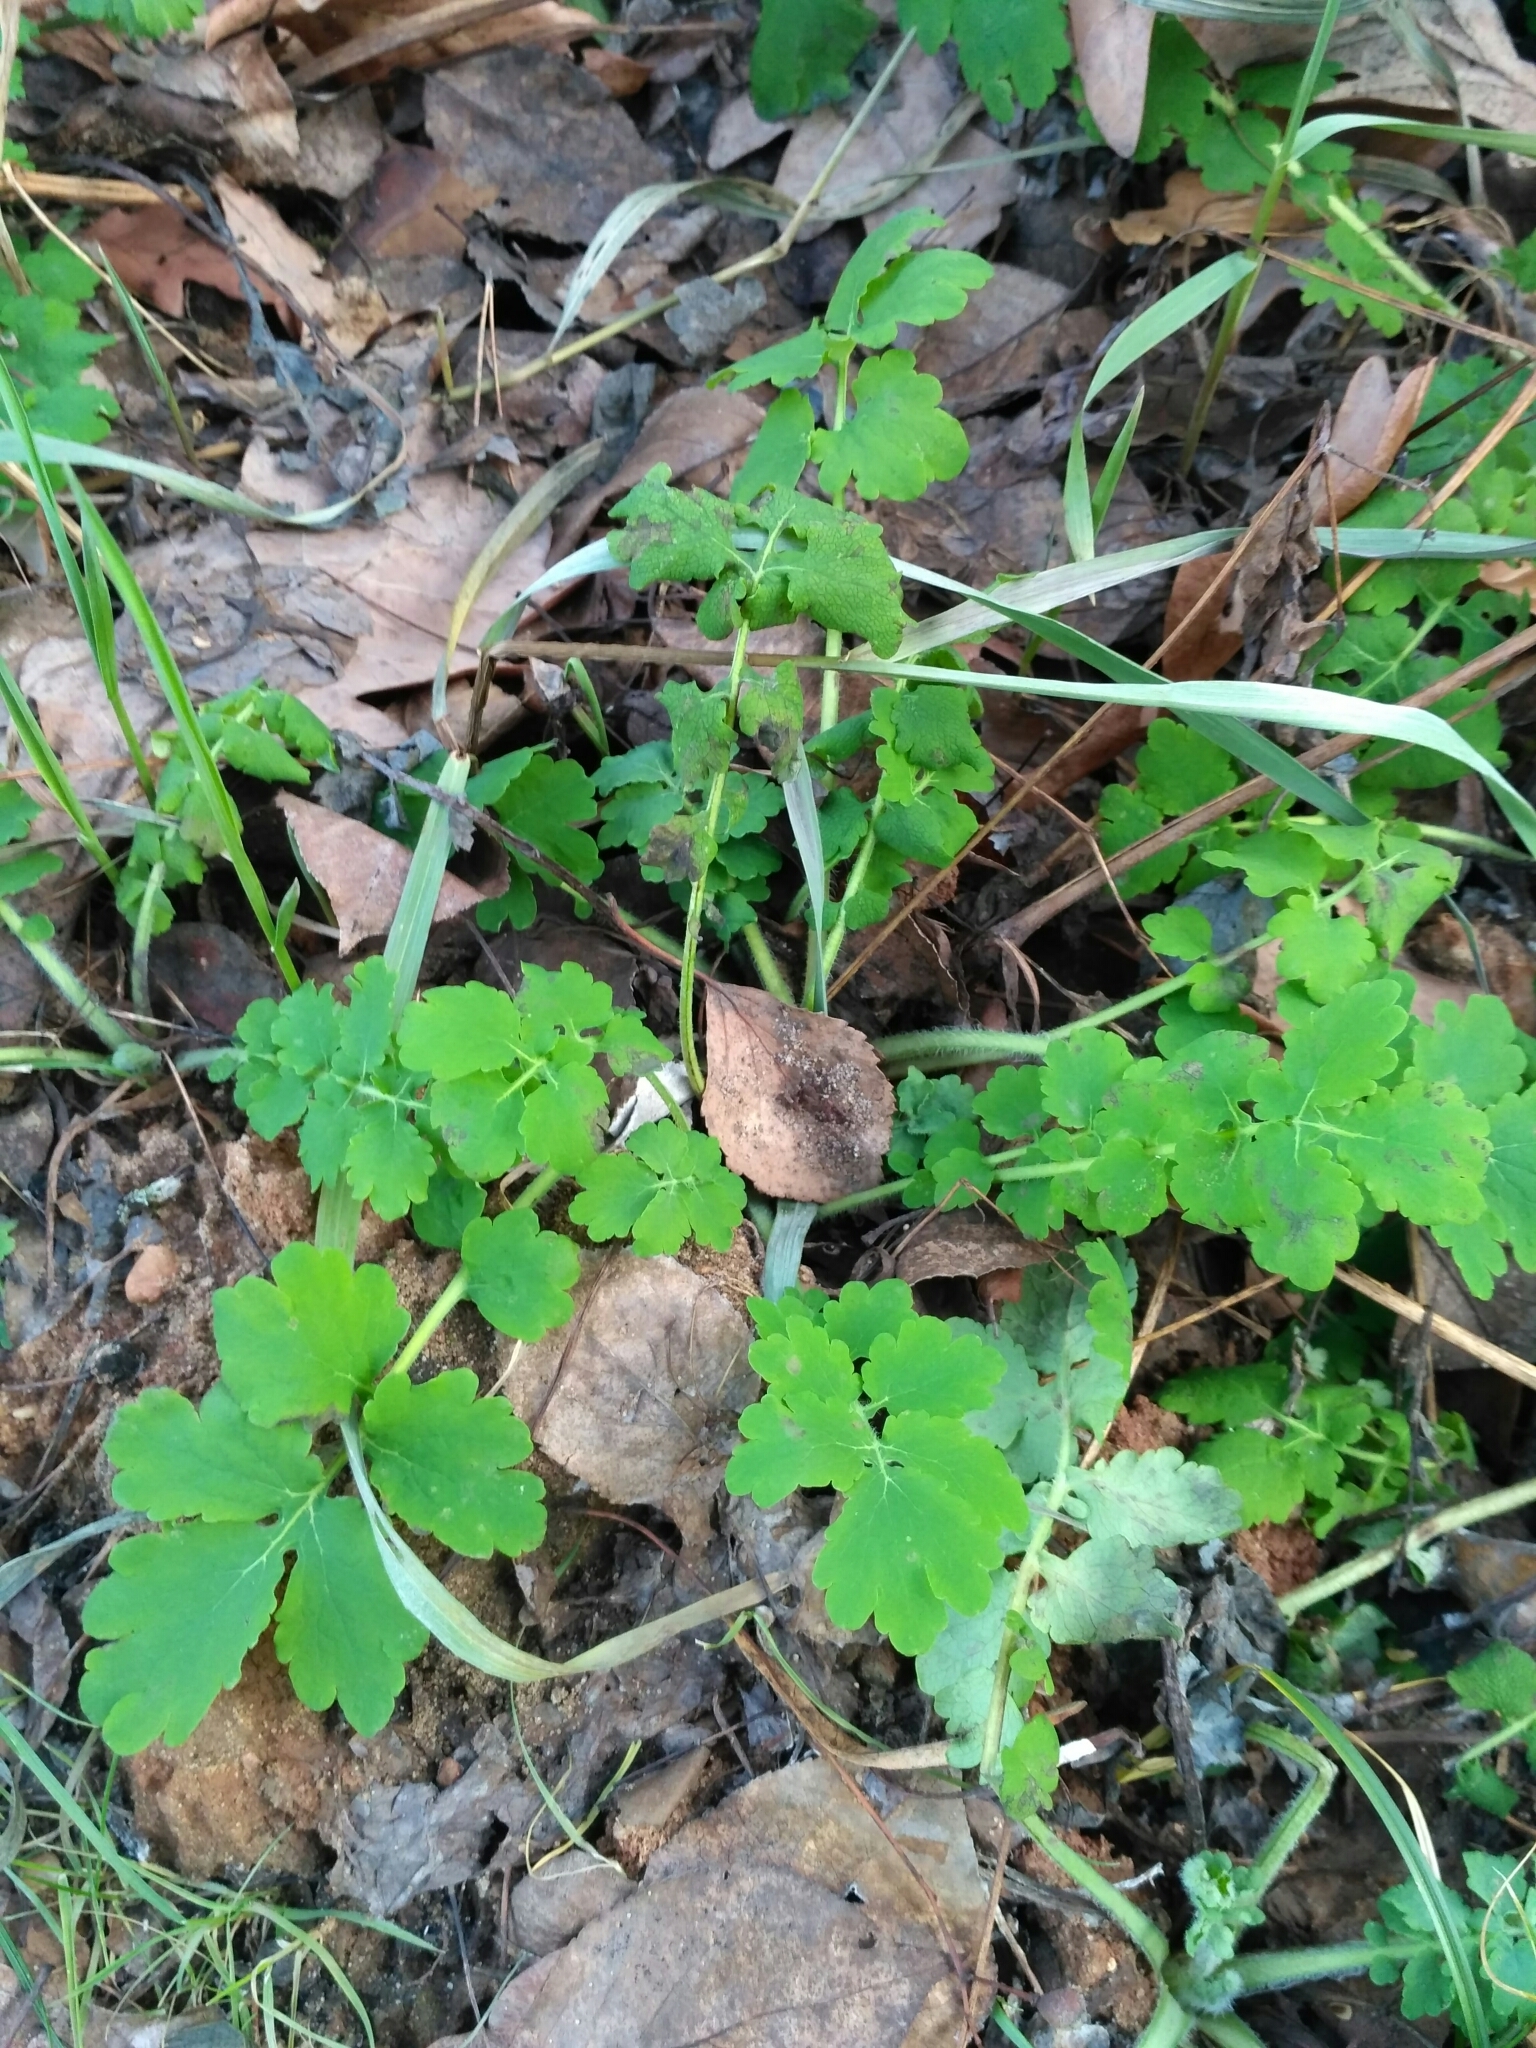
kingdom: Plantae
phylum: Tracheophyta
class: Magnoliopsida
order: Ranunculales
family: Papaveraceae
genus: Chelidonium
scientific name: Chelidonium majus
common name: Greater celandine
